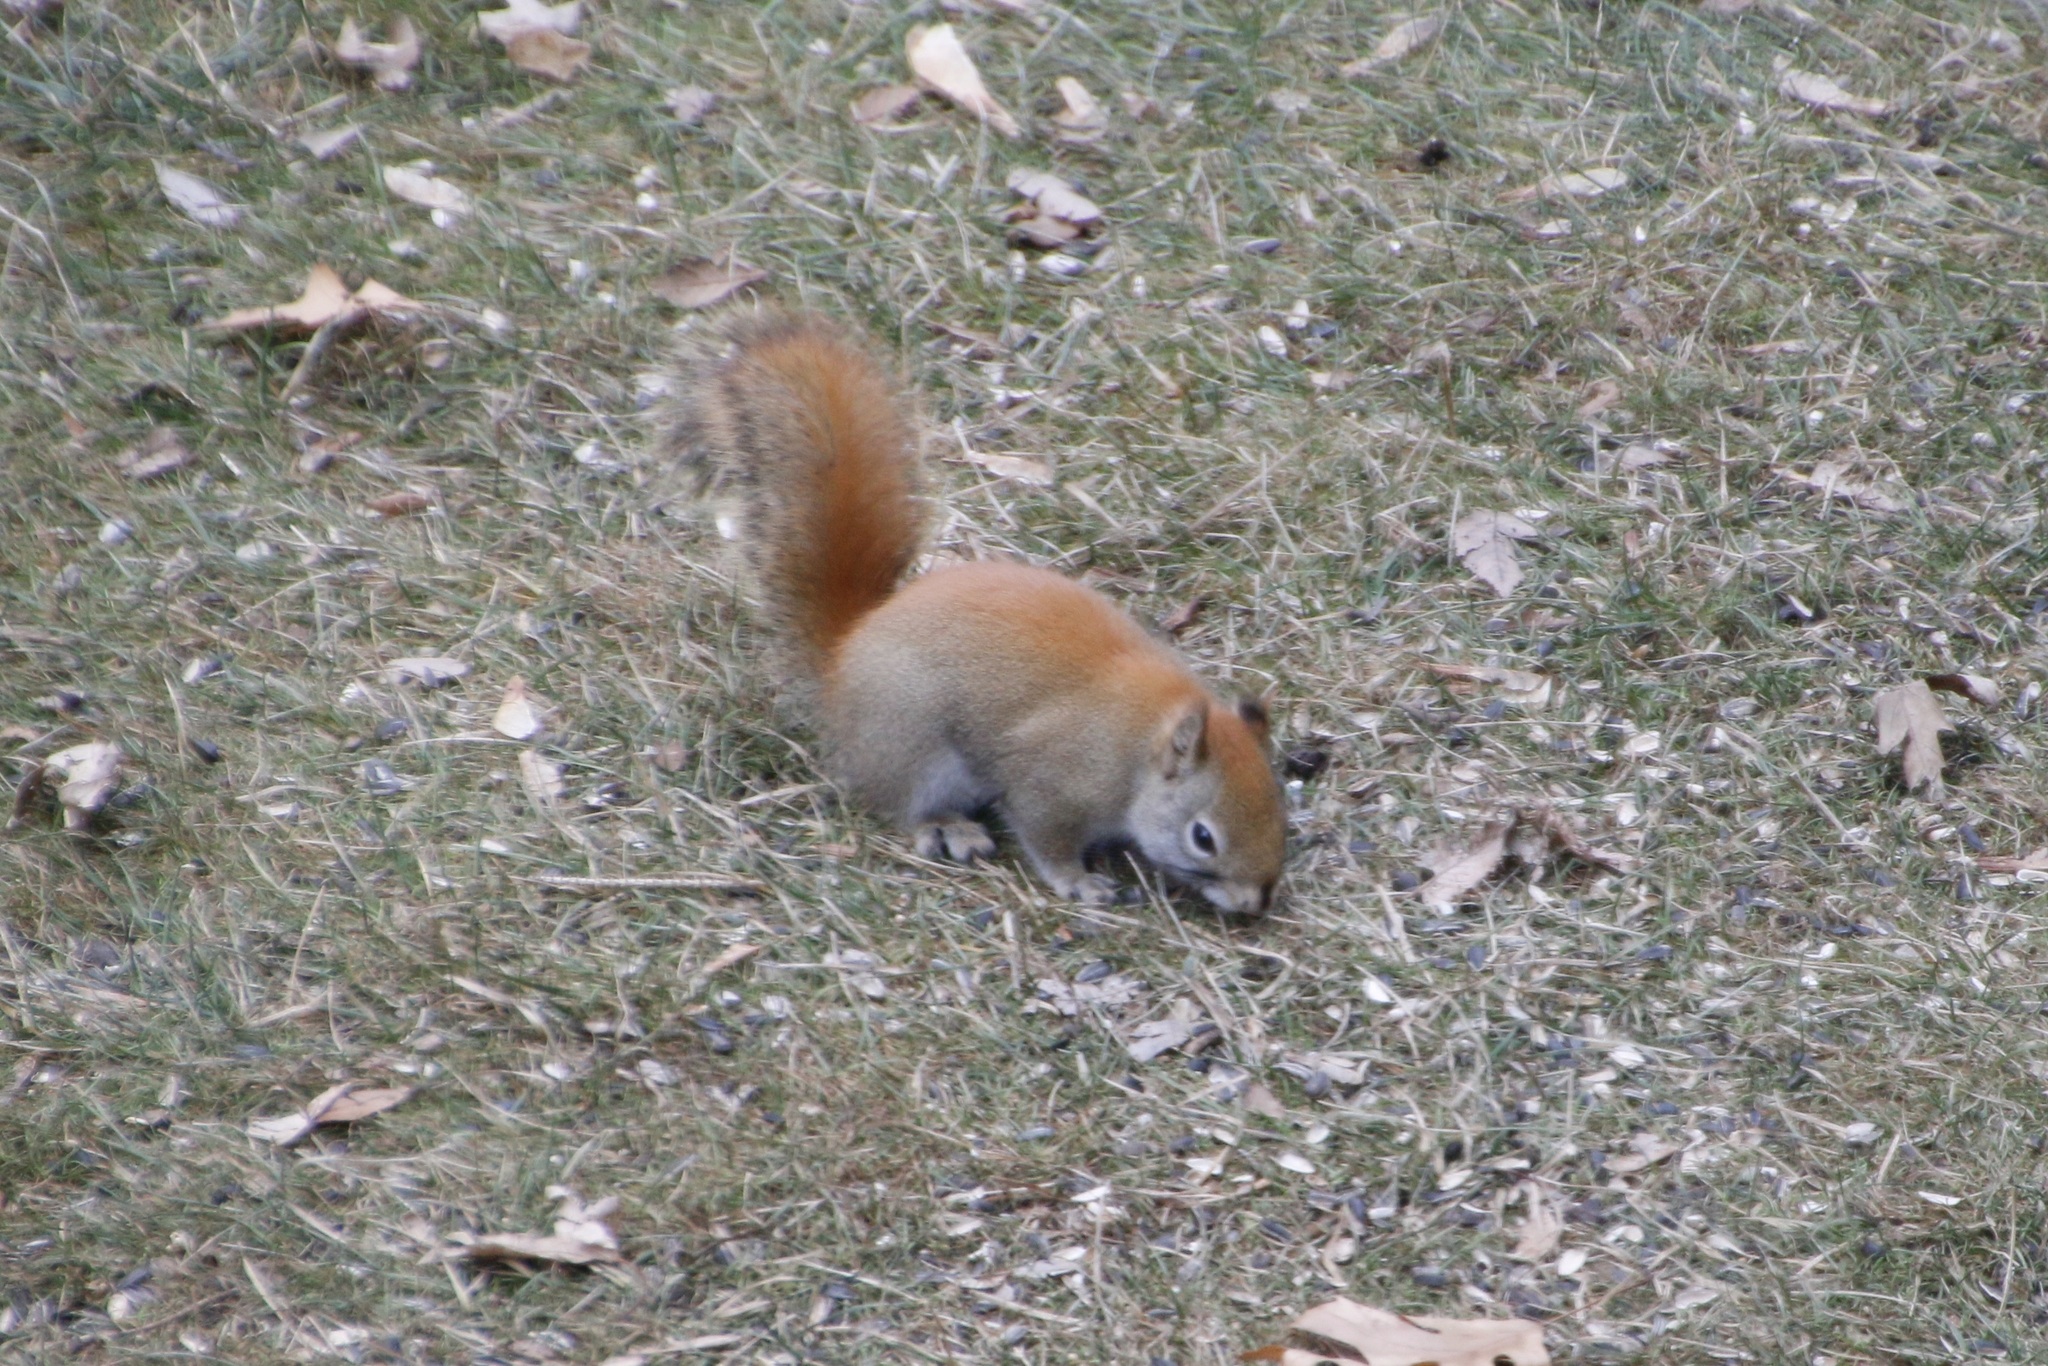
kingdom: Animalia
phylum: Chordata
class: Mammalia
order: Rodentia
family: Sciuridae
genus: Tamiasciurus
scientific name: Tamiasciurus hudsonicus
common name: Red squirrel
